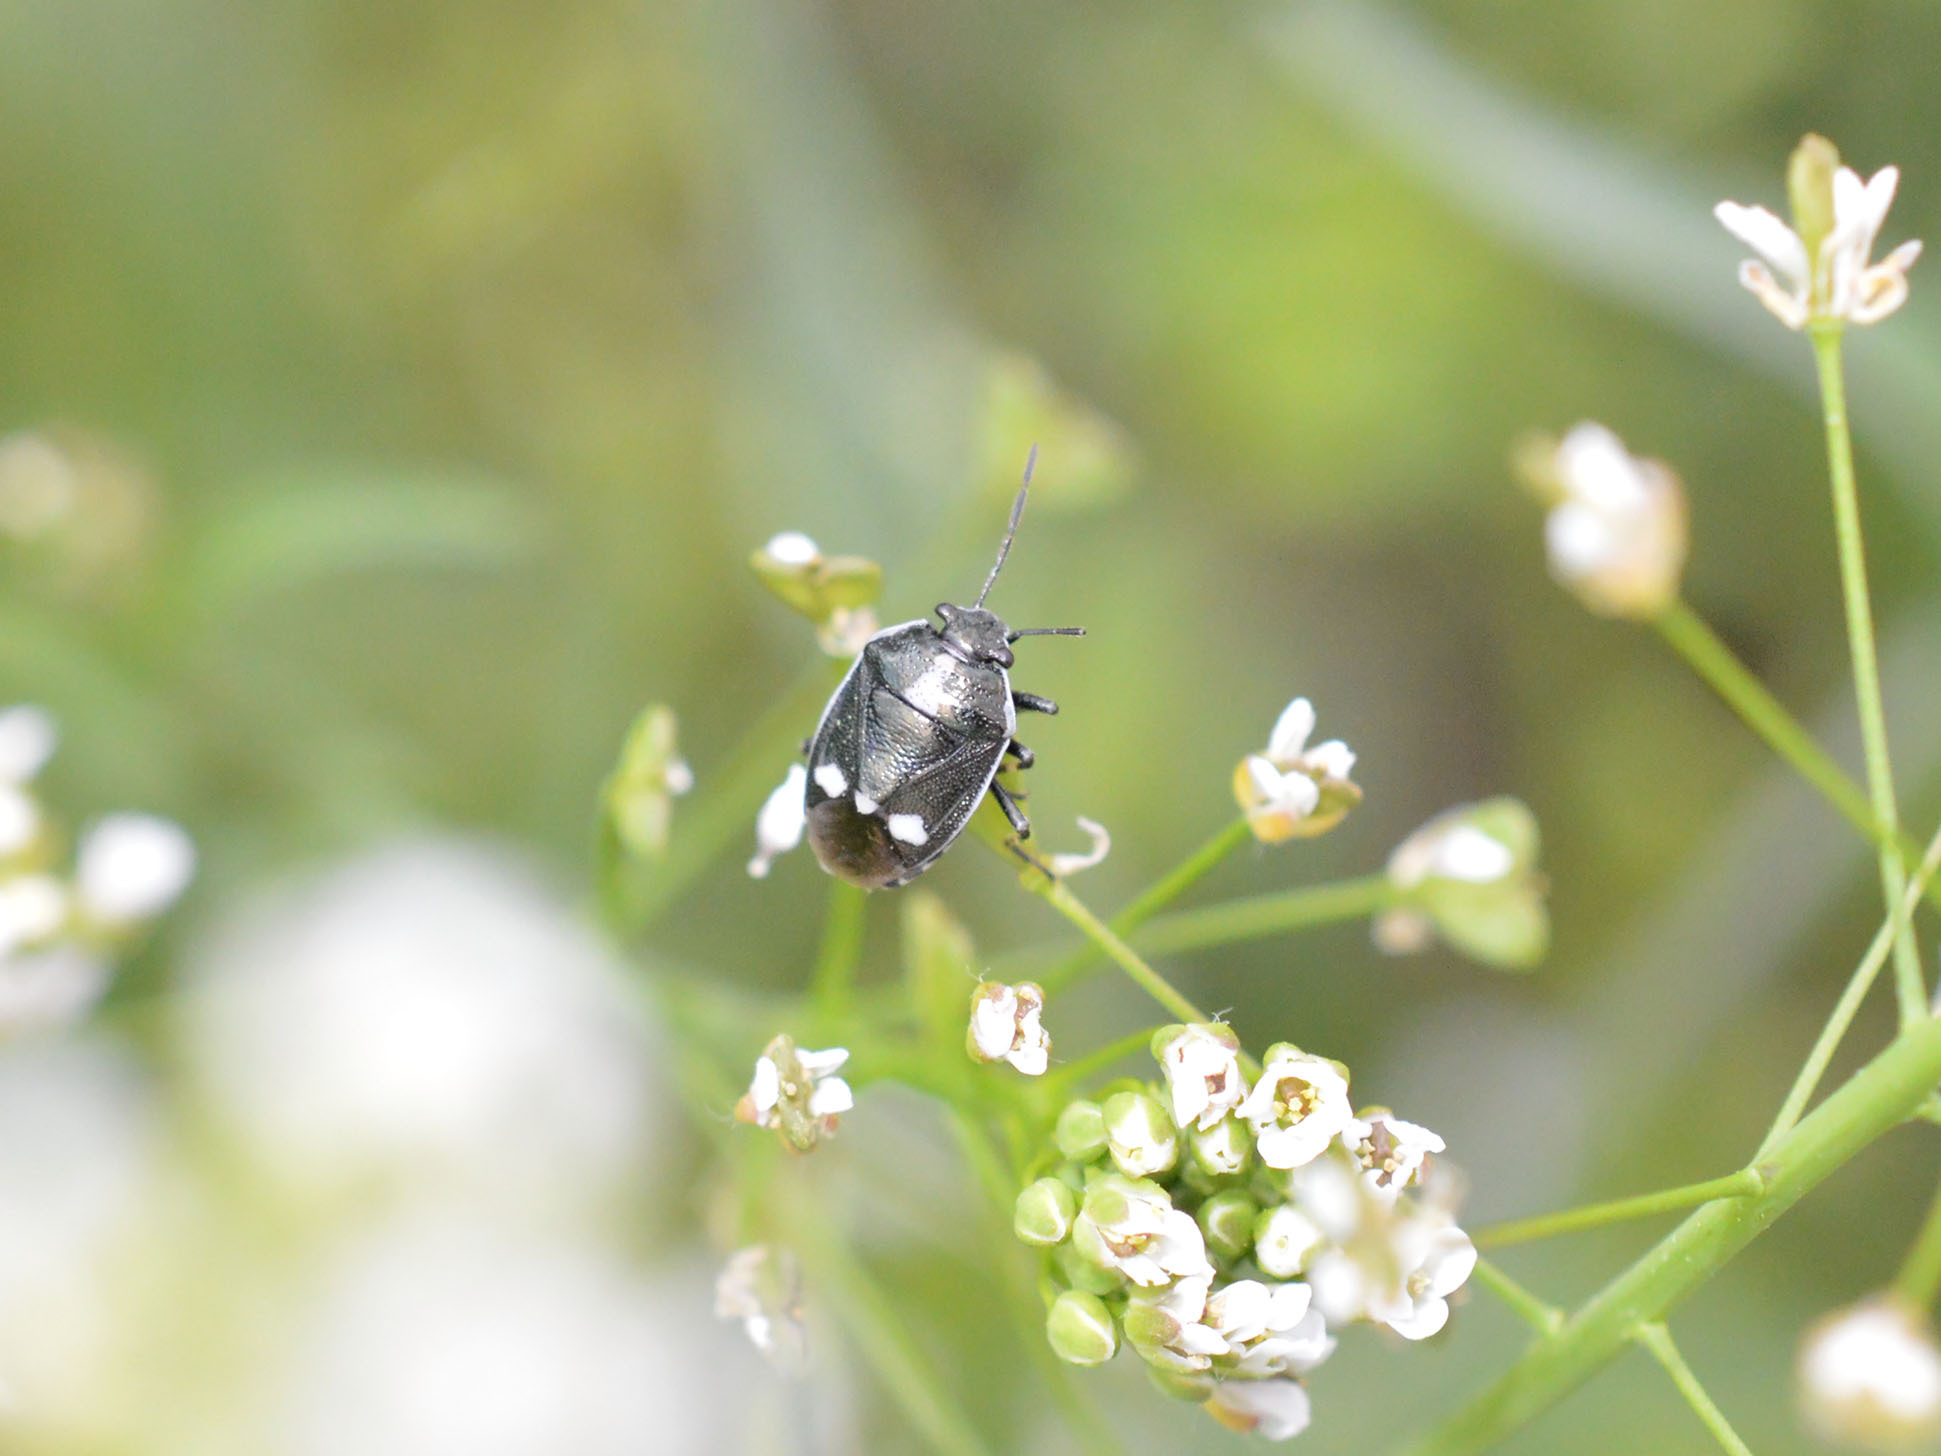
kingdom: Animalia
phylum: Arthropoda
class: Insecta
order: Hemiptera
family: Pentatomidae
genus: Eurydema
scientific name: Eurydema oleracea
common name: Cabbage bug
